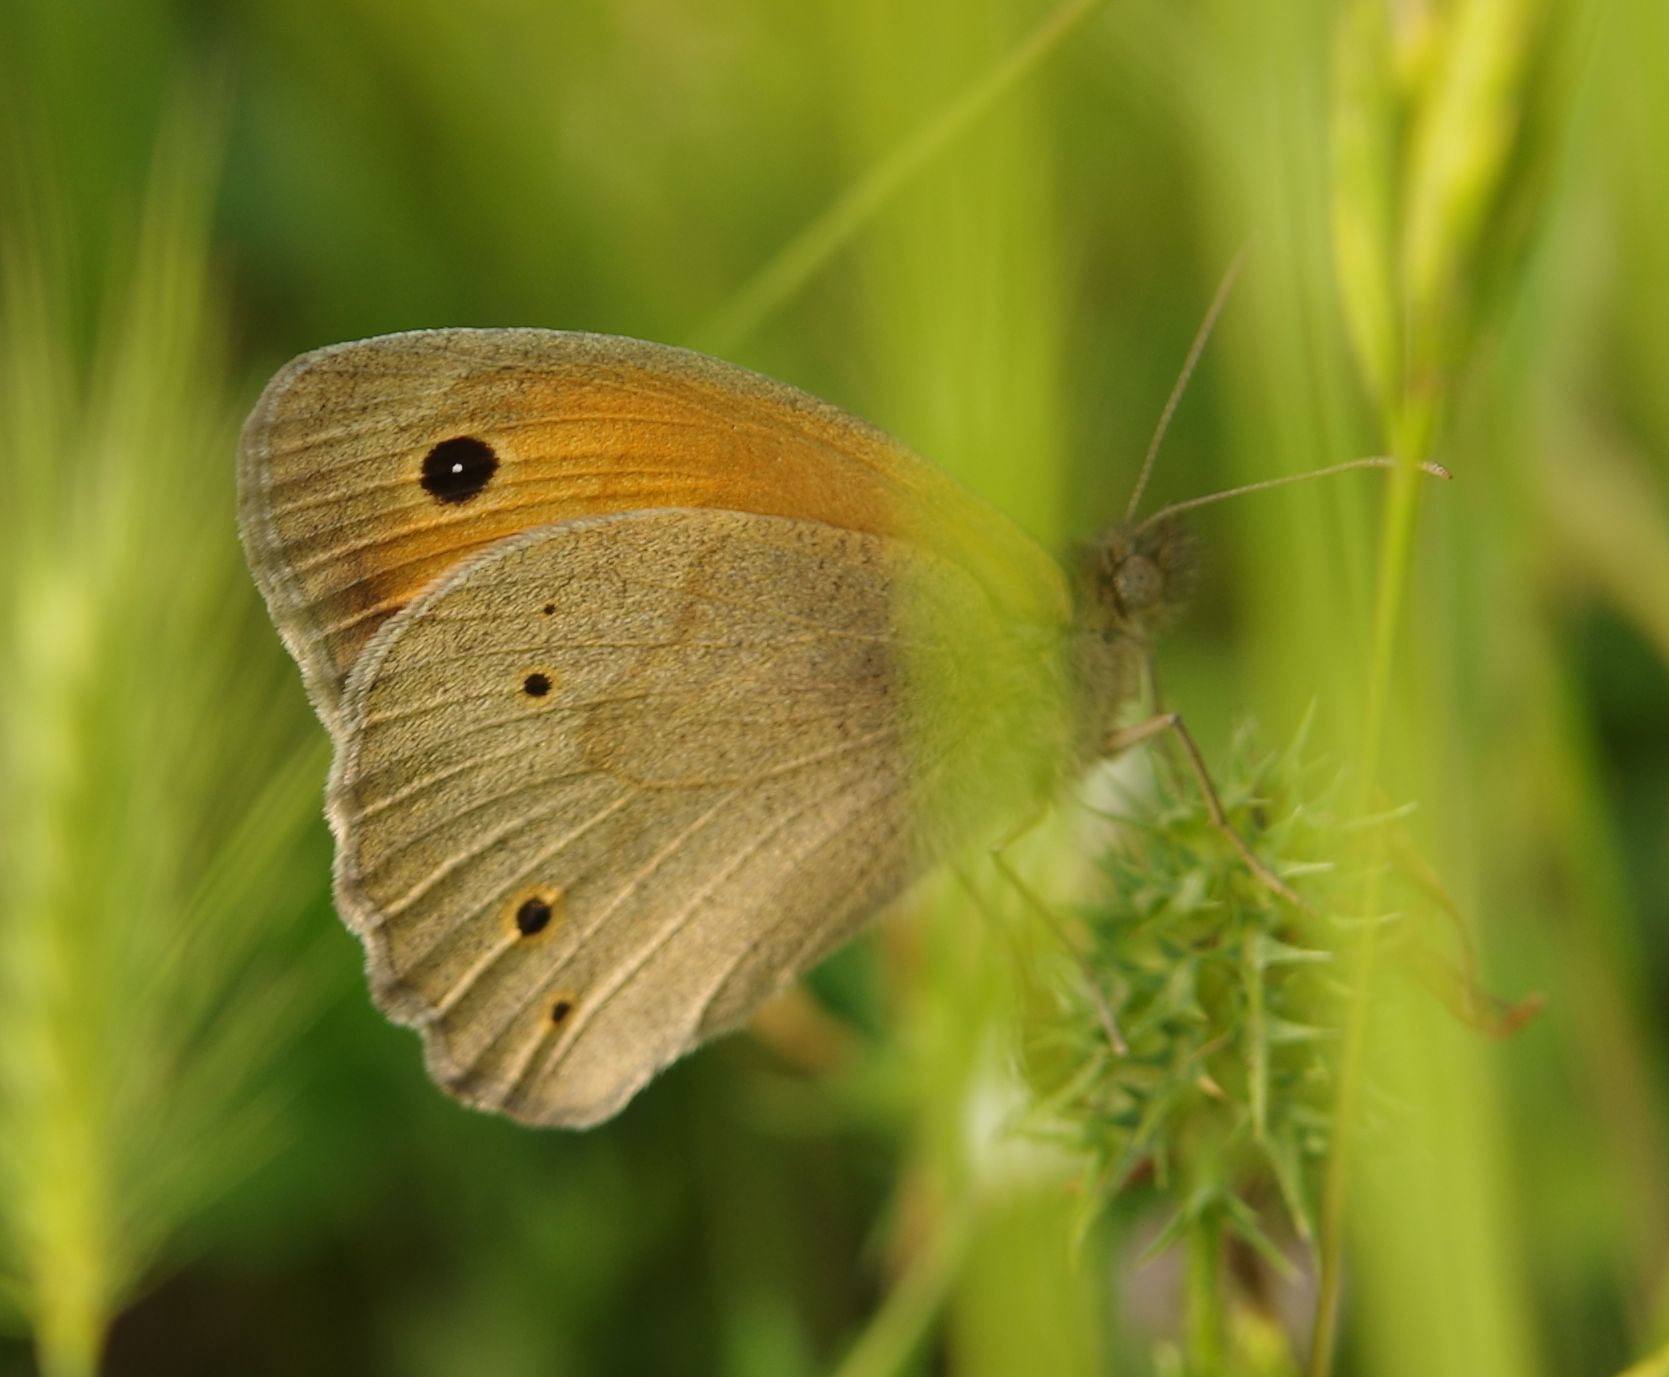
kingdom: Animalia
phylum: Arthropoda
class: Insecta
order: Lepidoptera
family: Nymphalidae
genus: Maniola
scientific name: Maniola jurtina
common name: Meadow brown
